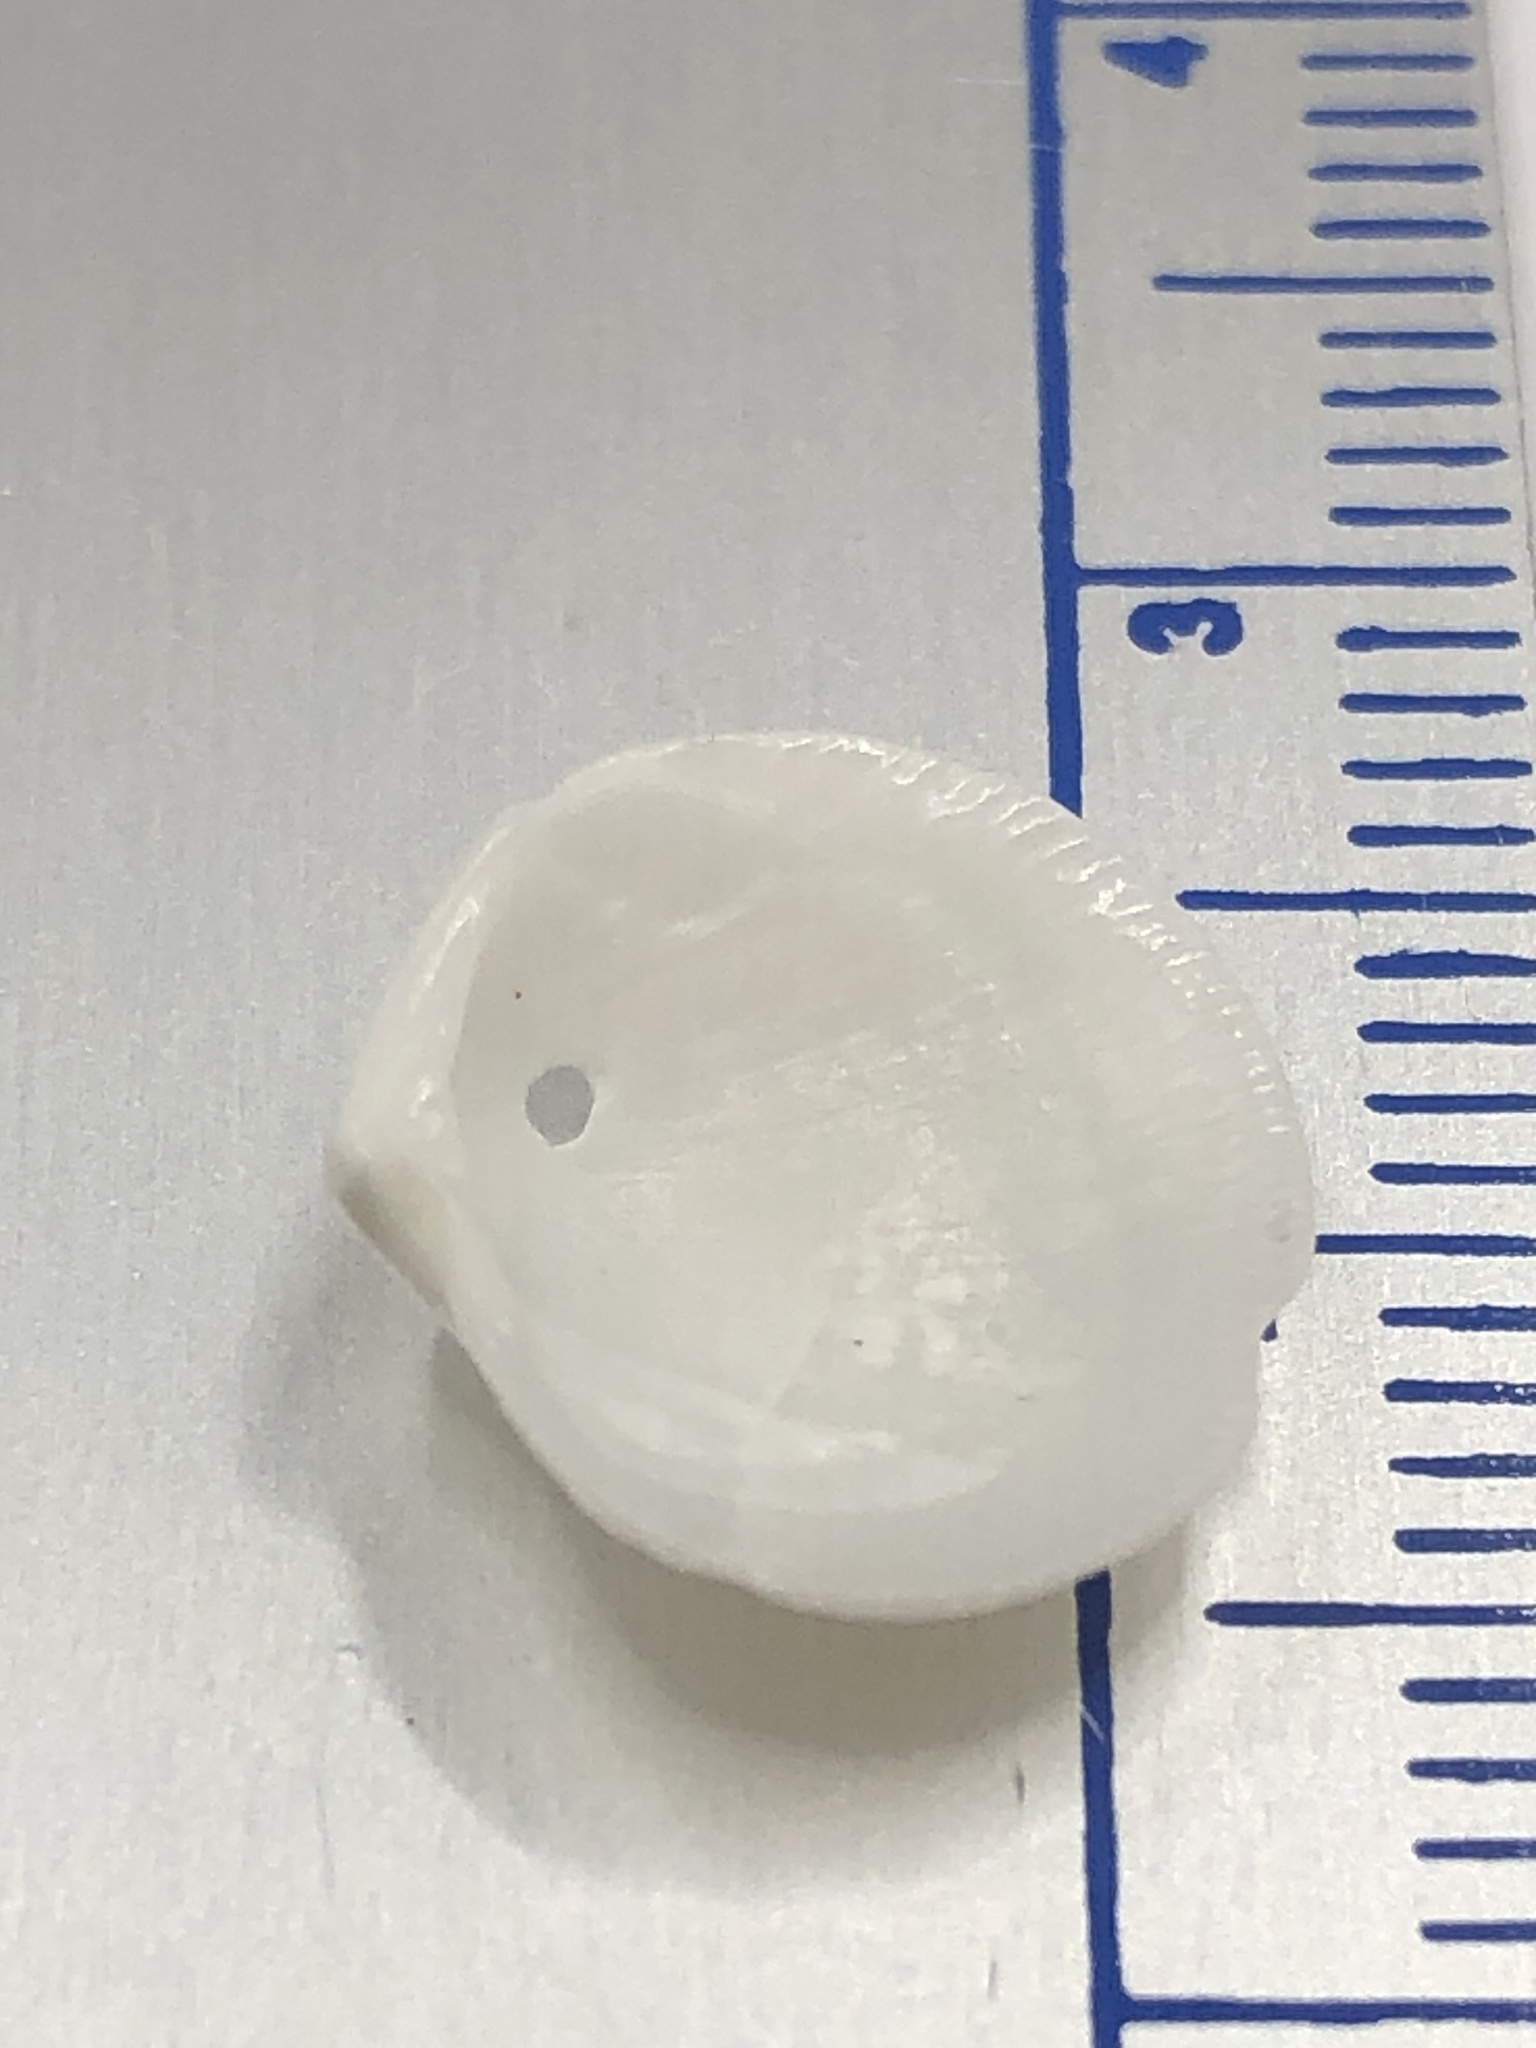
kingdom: Animalia
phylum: Mollusca
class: Bivalvia
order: Lucinida
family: Lucinidae
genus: Callucina
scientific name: Callucina keenae
